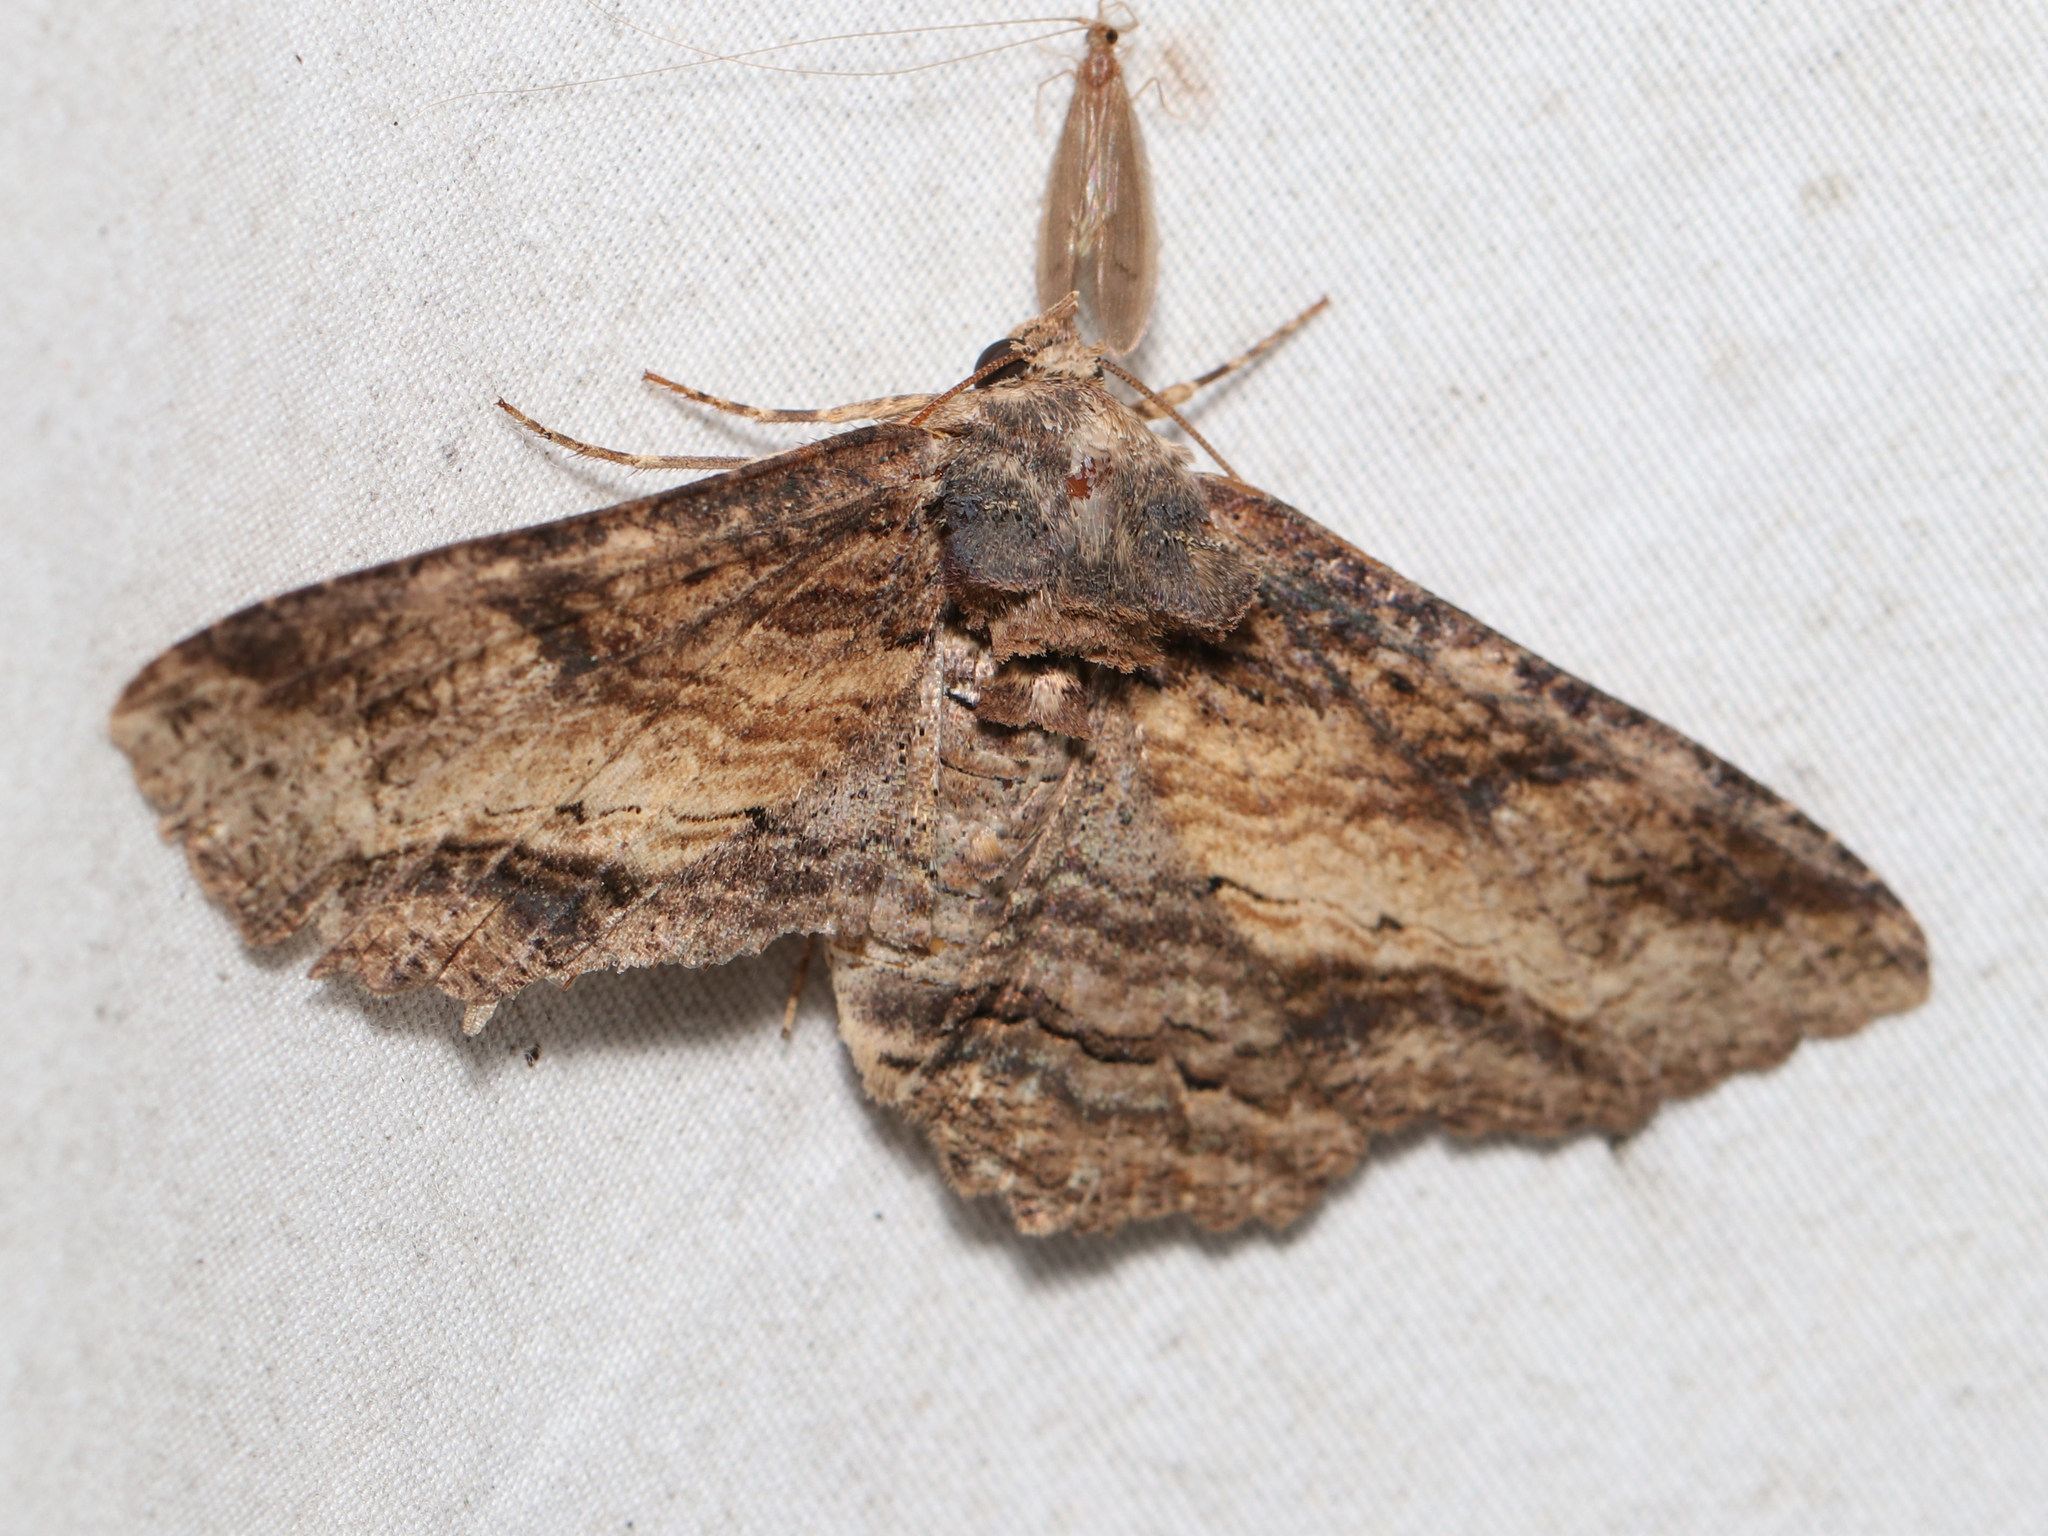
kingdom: Animalia
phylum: Arthropoda
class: Insecta
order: Lepidoptera
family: Erebidae
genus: Zale
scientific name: Zale lunata
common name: Lunate zale moth
